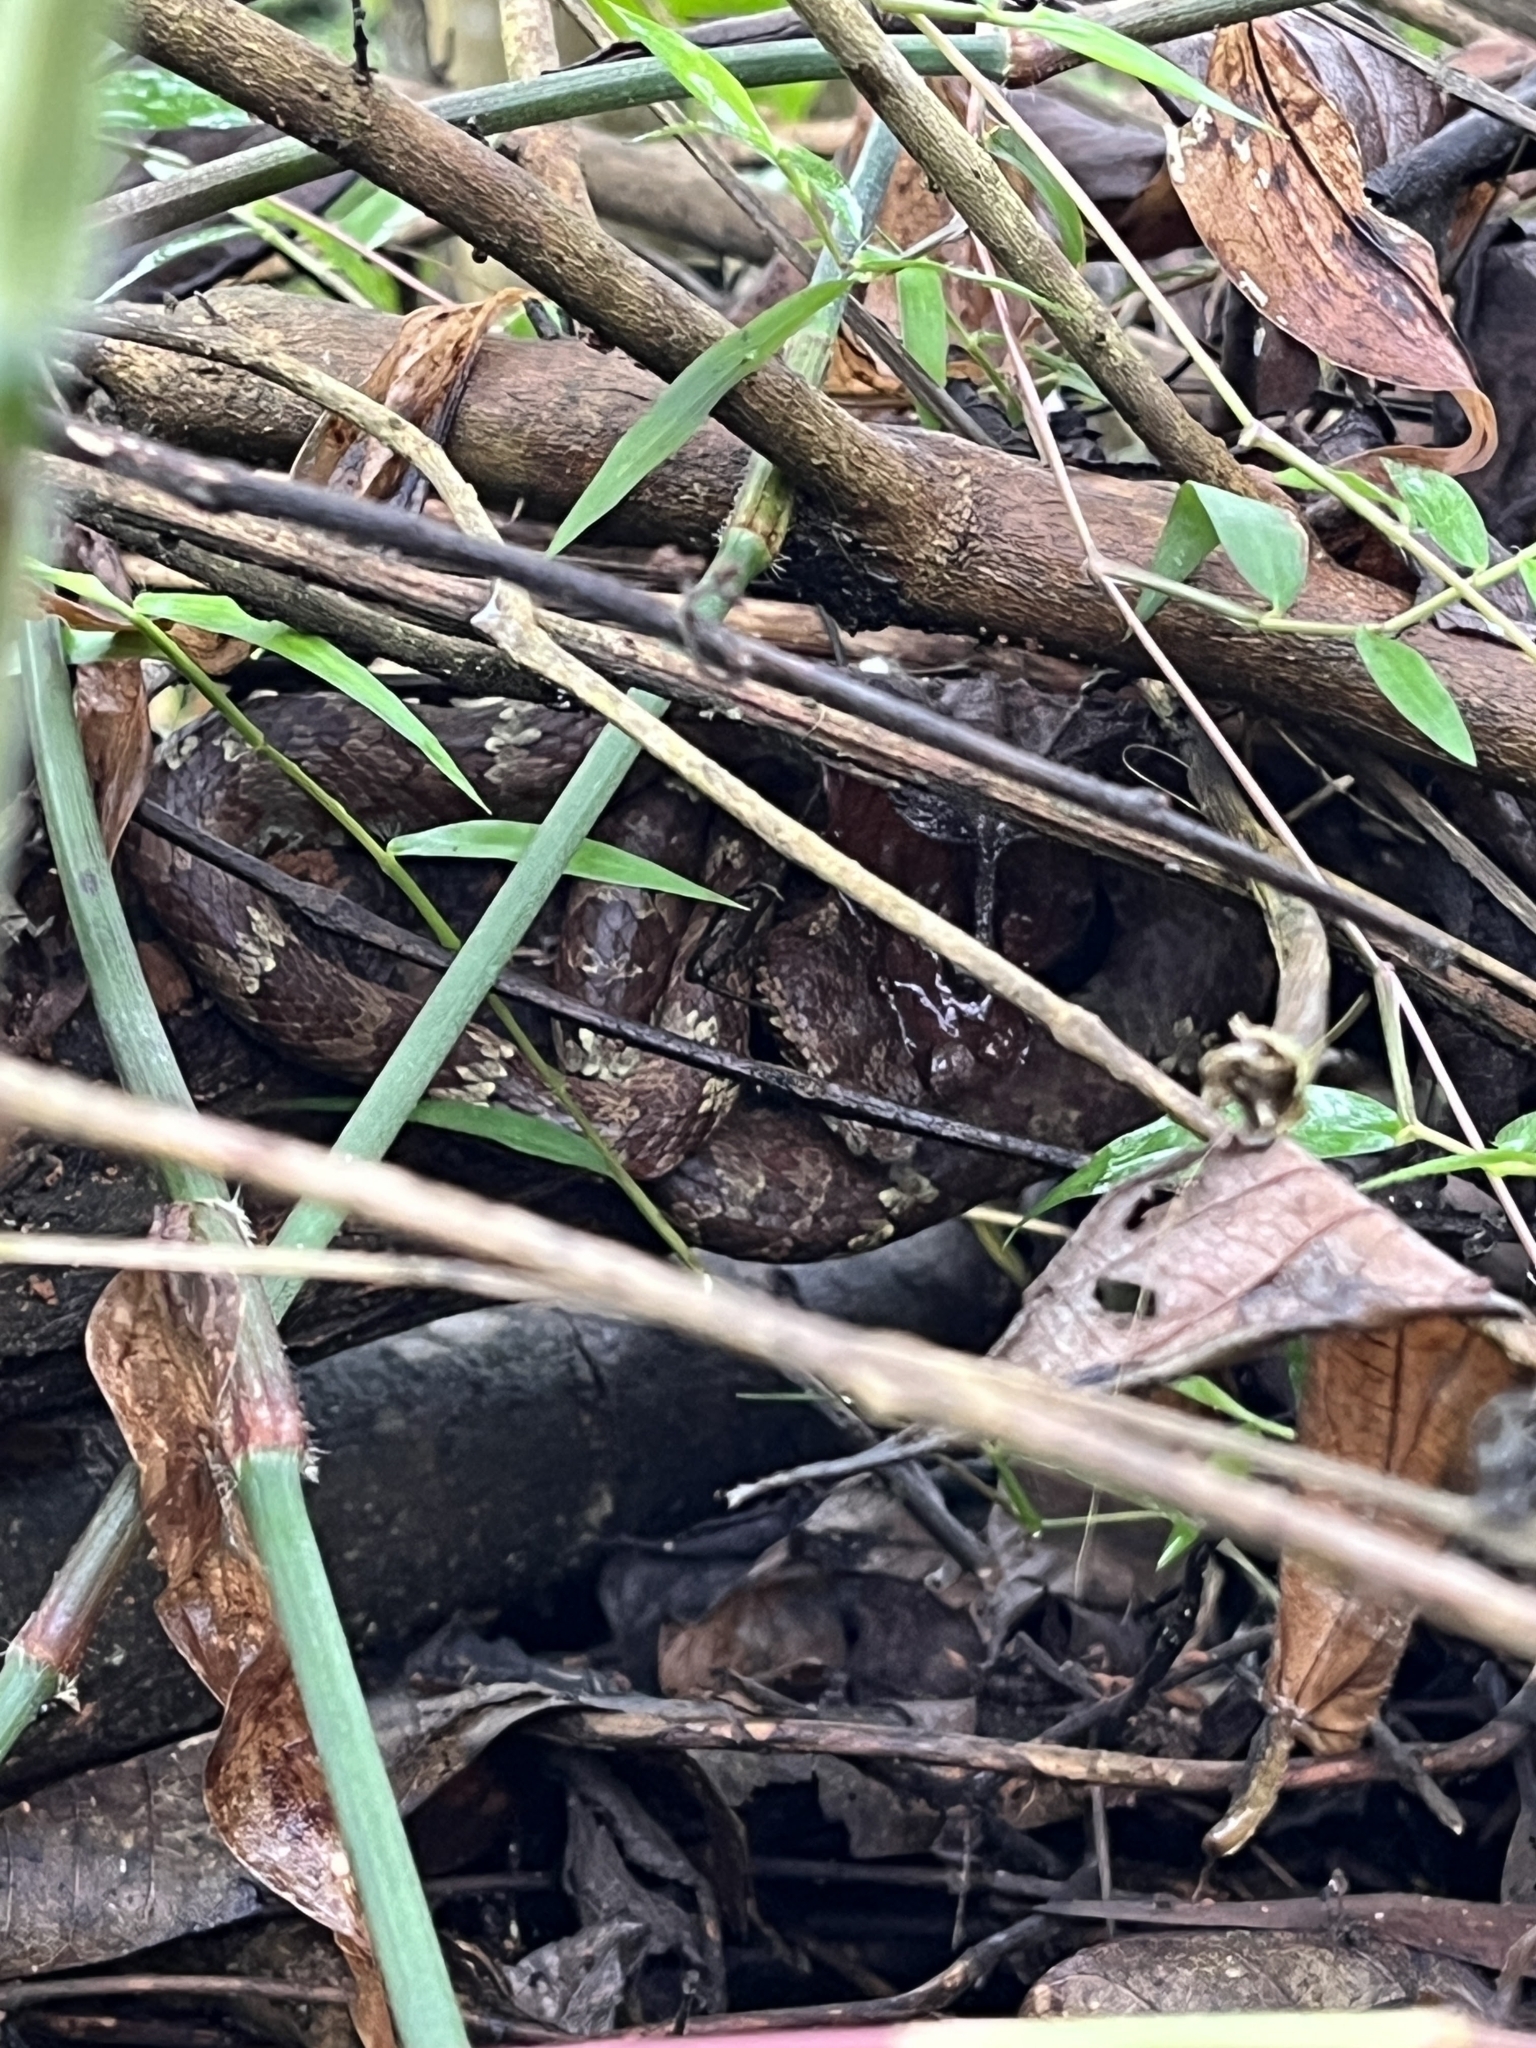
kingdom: Animalia
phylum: Chordata
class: Squamata
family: Viperidae
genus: Craspedocephalus
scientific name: Craspedocephalus malabaricus
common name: Malabarian pit viper
